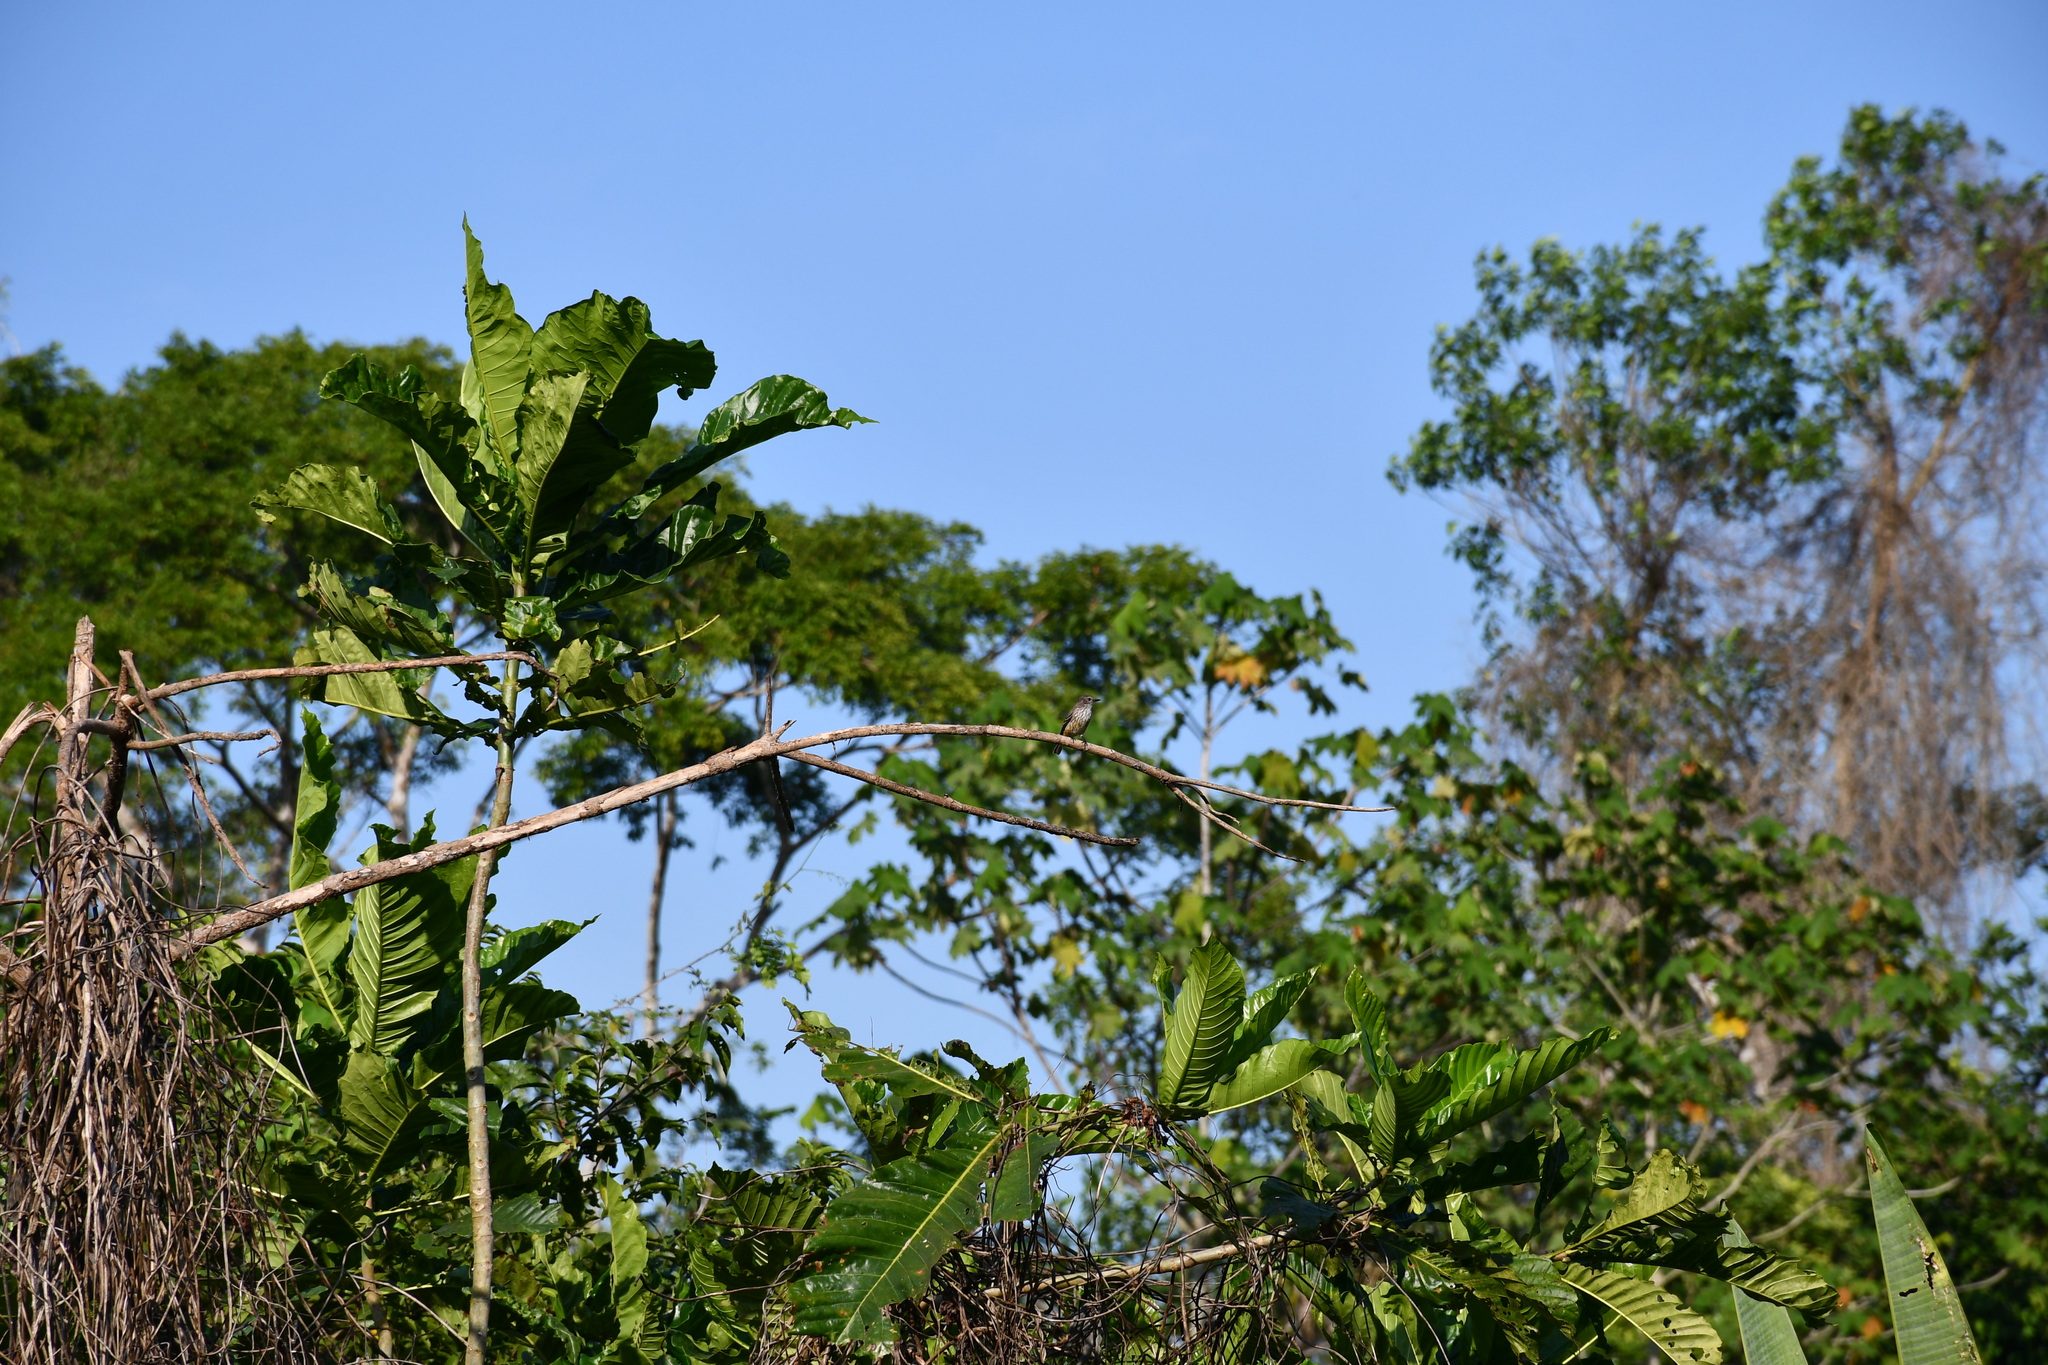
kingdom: Animalia
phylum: Chordata
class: Aves
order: Passeriformes
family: Tyrannidae
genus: Pyrocephalus
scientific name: Pyrocephalus rubinus
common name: Vermilion flycatcher
